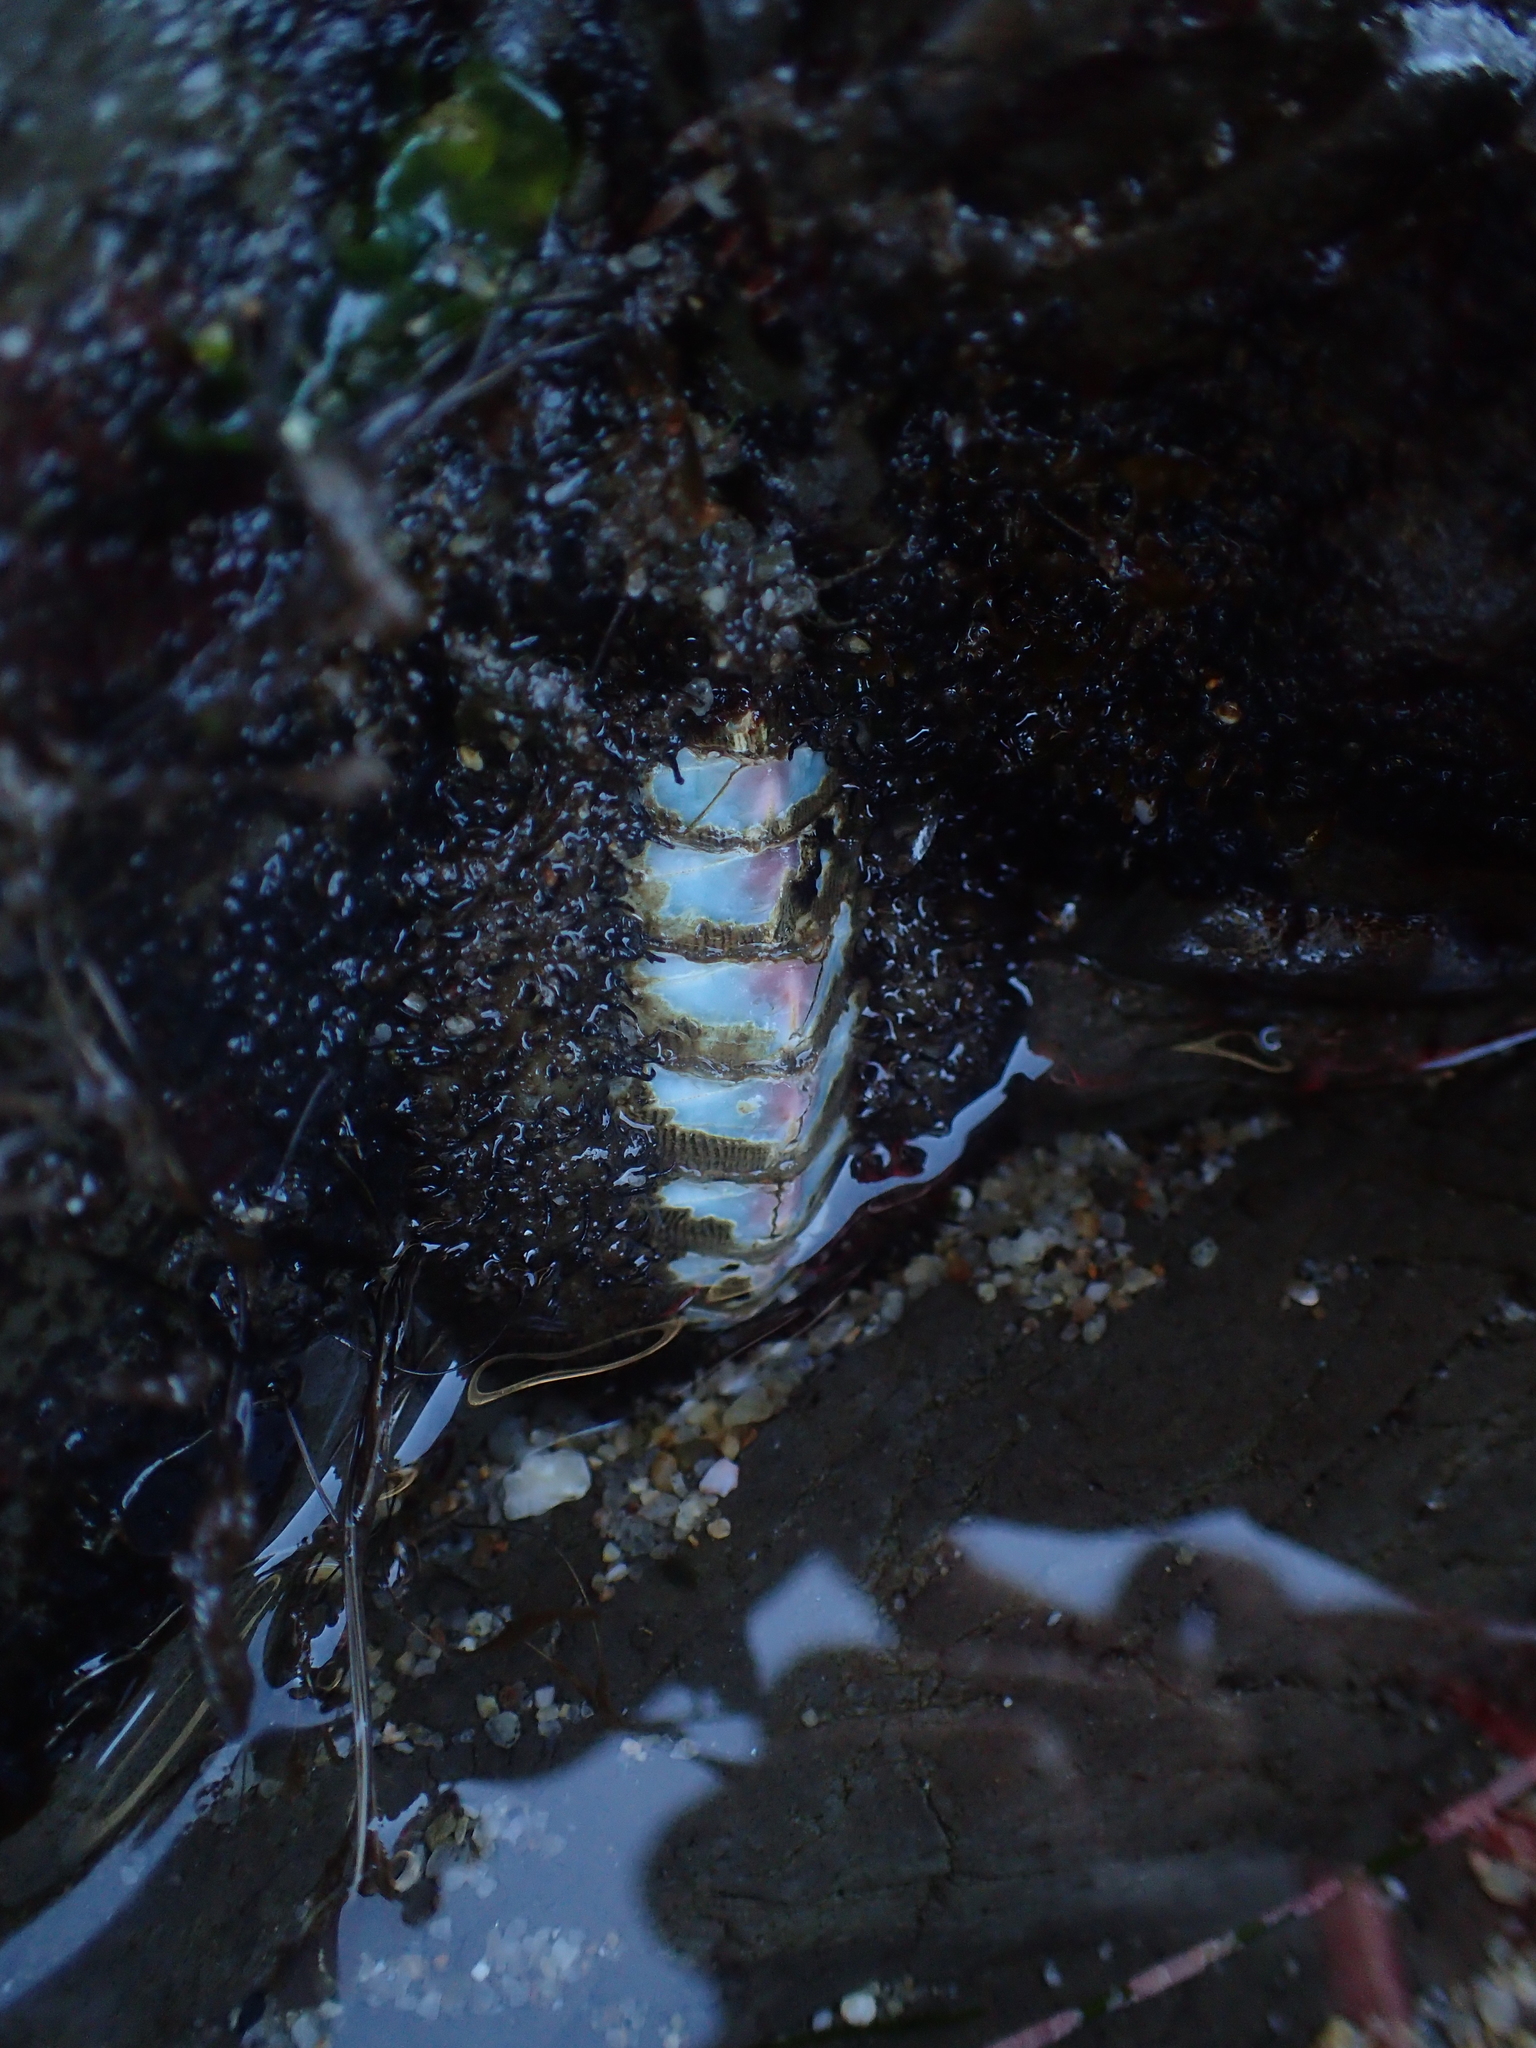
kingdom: Animalia
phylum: Mollusca
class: Polyplacophora
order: Chitonida
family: Mopaliidae
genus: Mopalia
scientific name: Mopalia muscosa
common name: Mossy chiton
